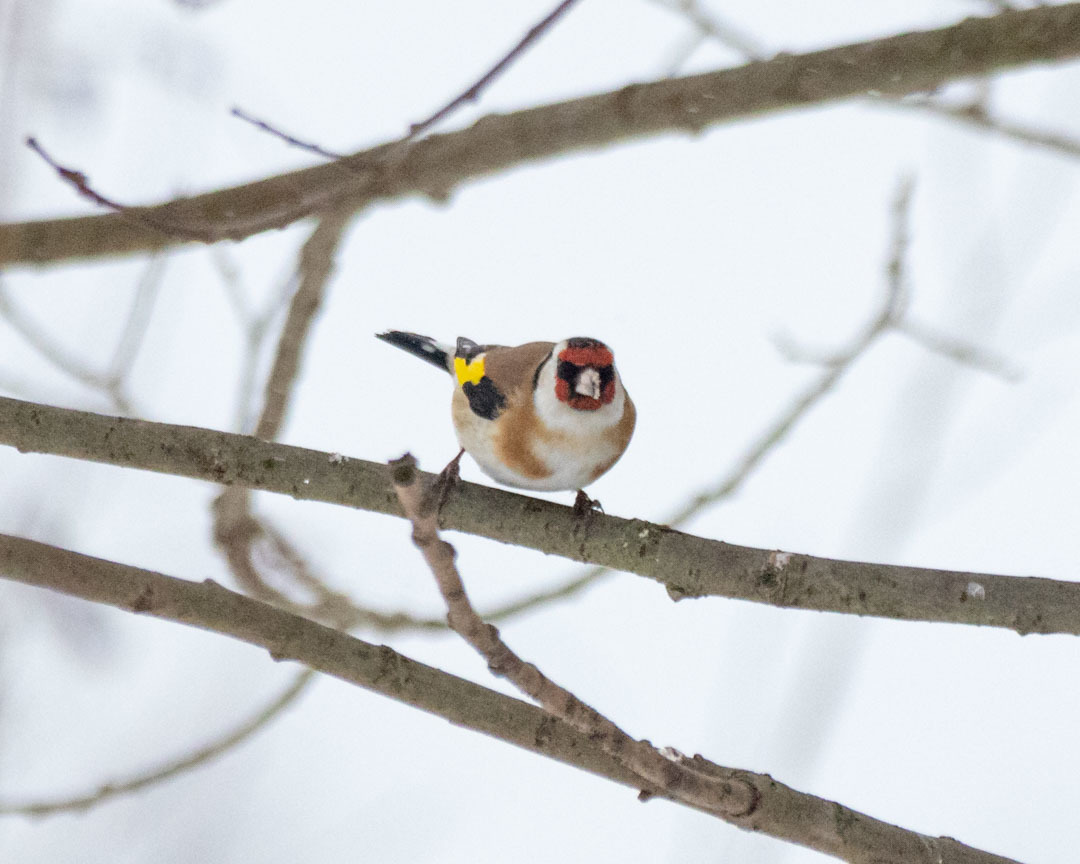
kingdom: Animalia
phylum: Chordata
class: Aves
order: Passeriformes
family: Fringillidae
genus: Carduelis
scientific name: Carduelis carduelis
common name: European goldfinch
